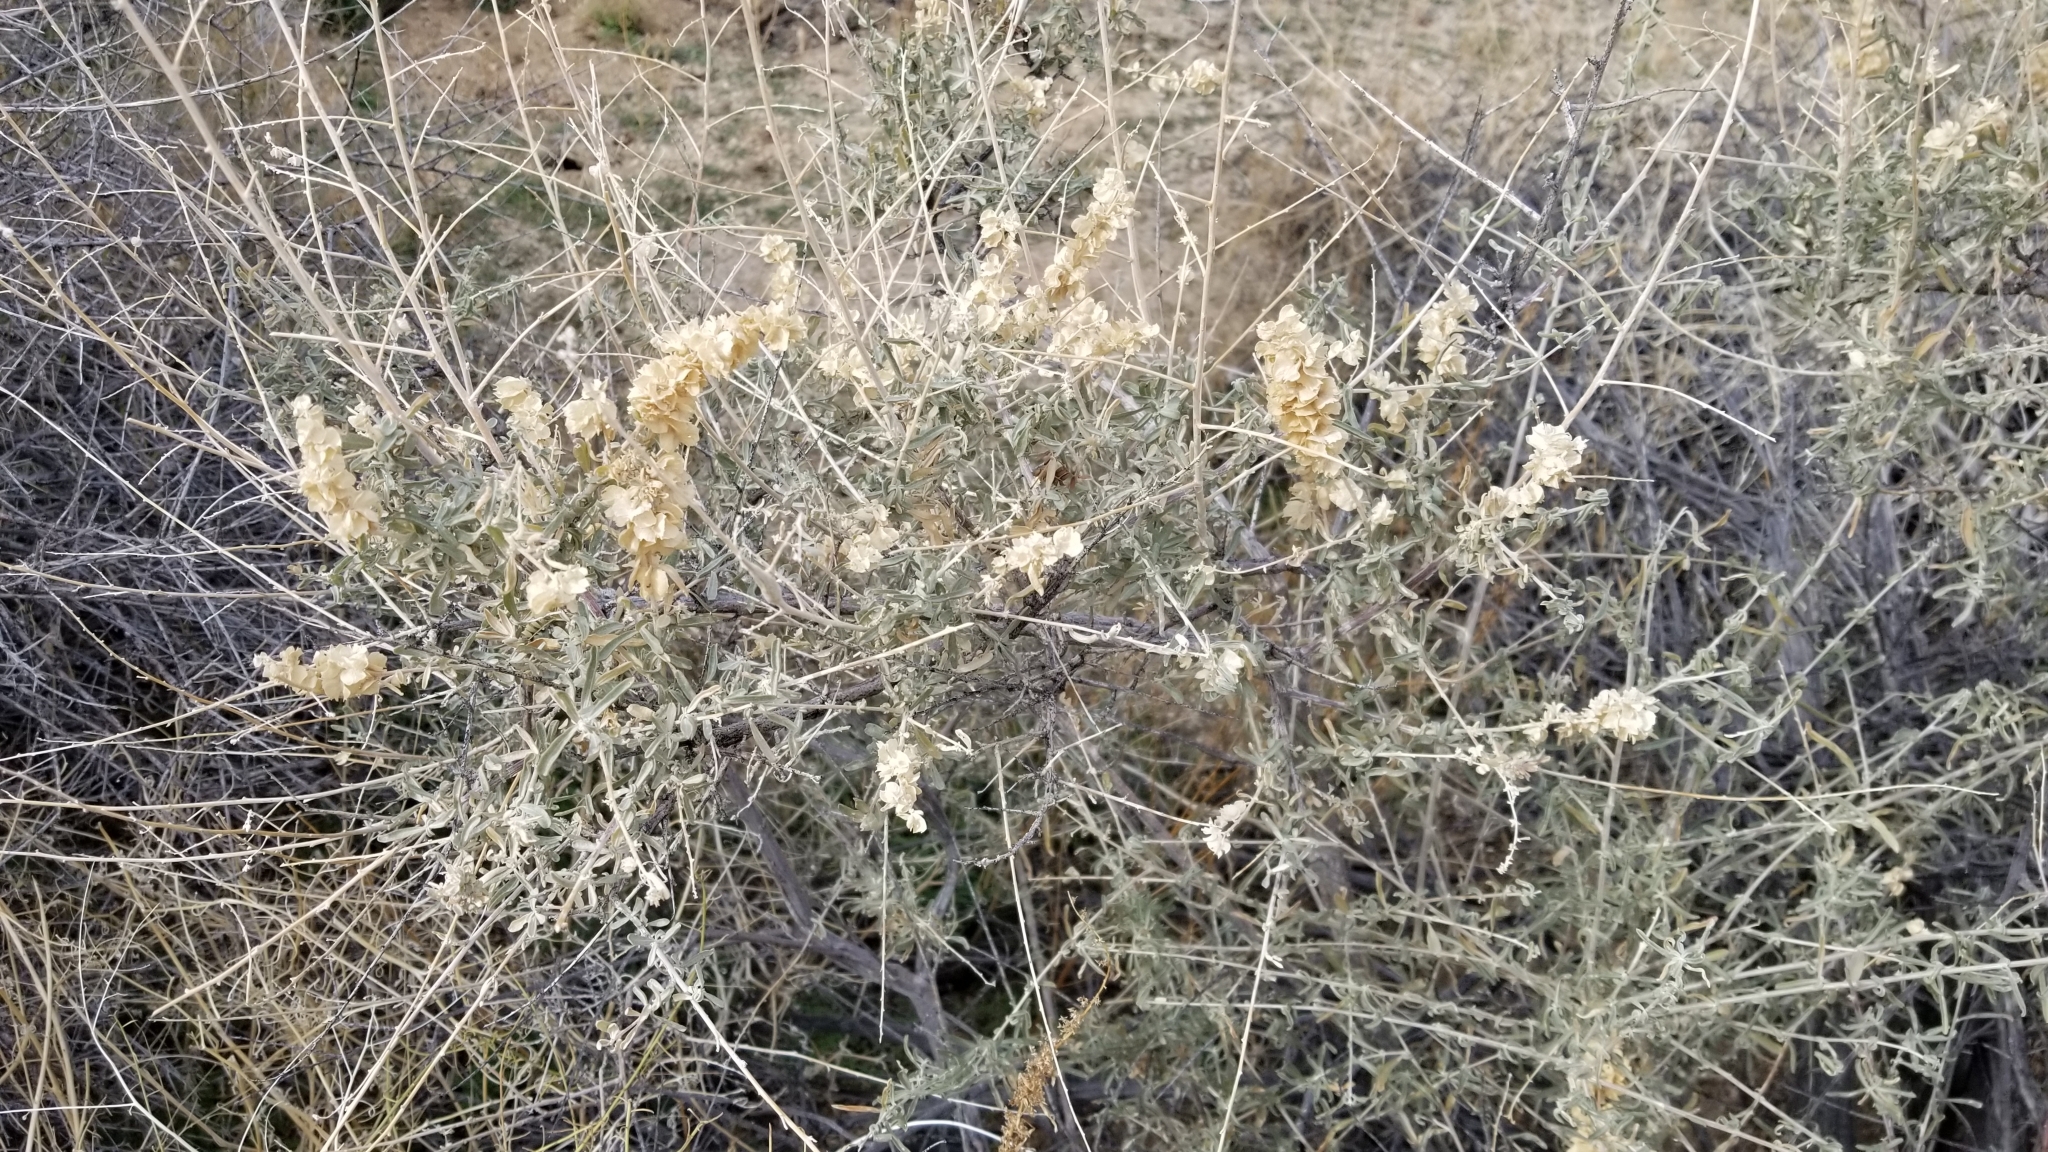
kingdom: Plantae
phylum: Tracheophyta
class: Magnoliopsida
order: Caryophyllales
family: Amaranthaceae
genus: Atriplex
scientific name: Atriplex canescens
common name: Four-wing saltbush
